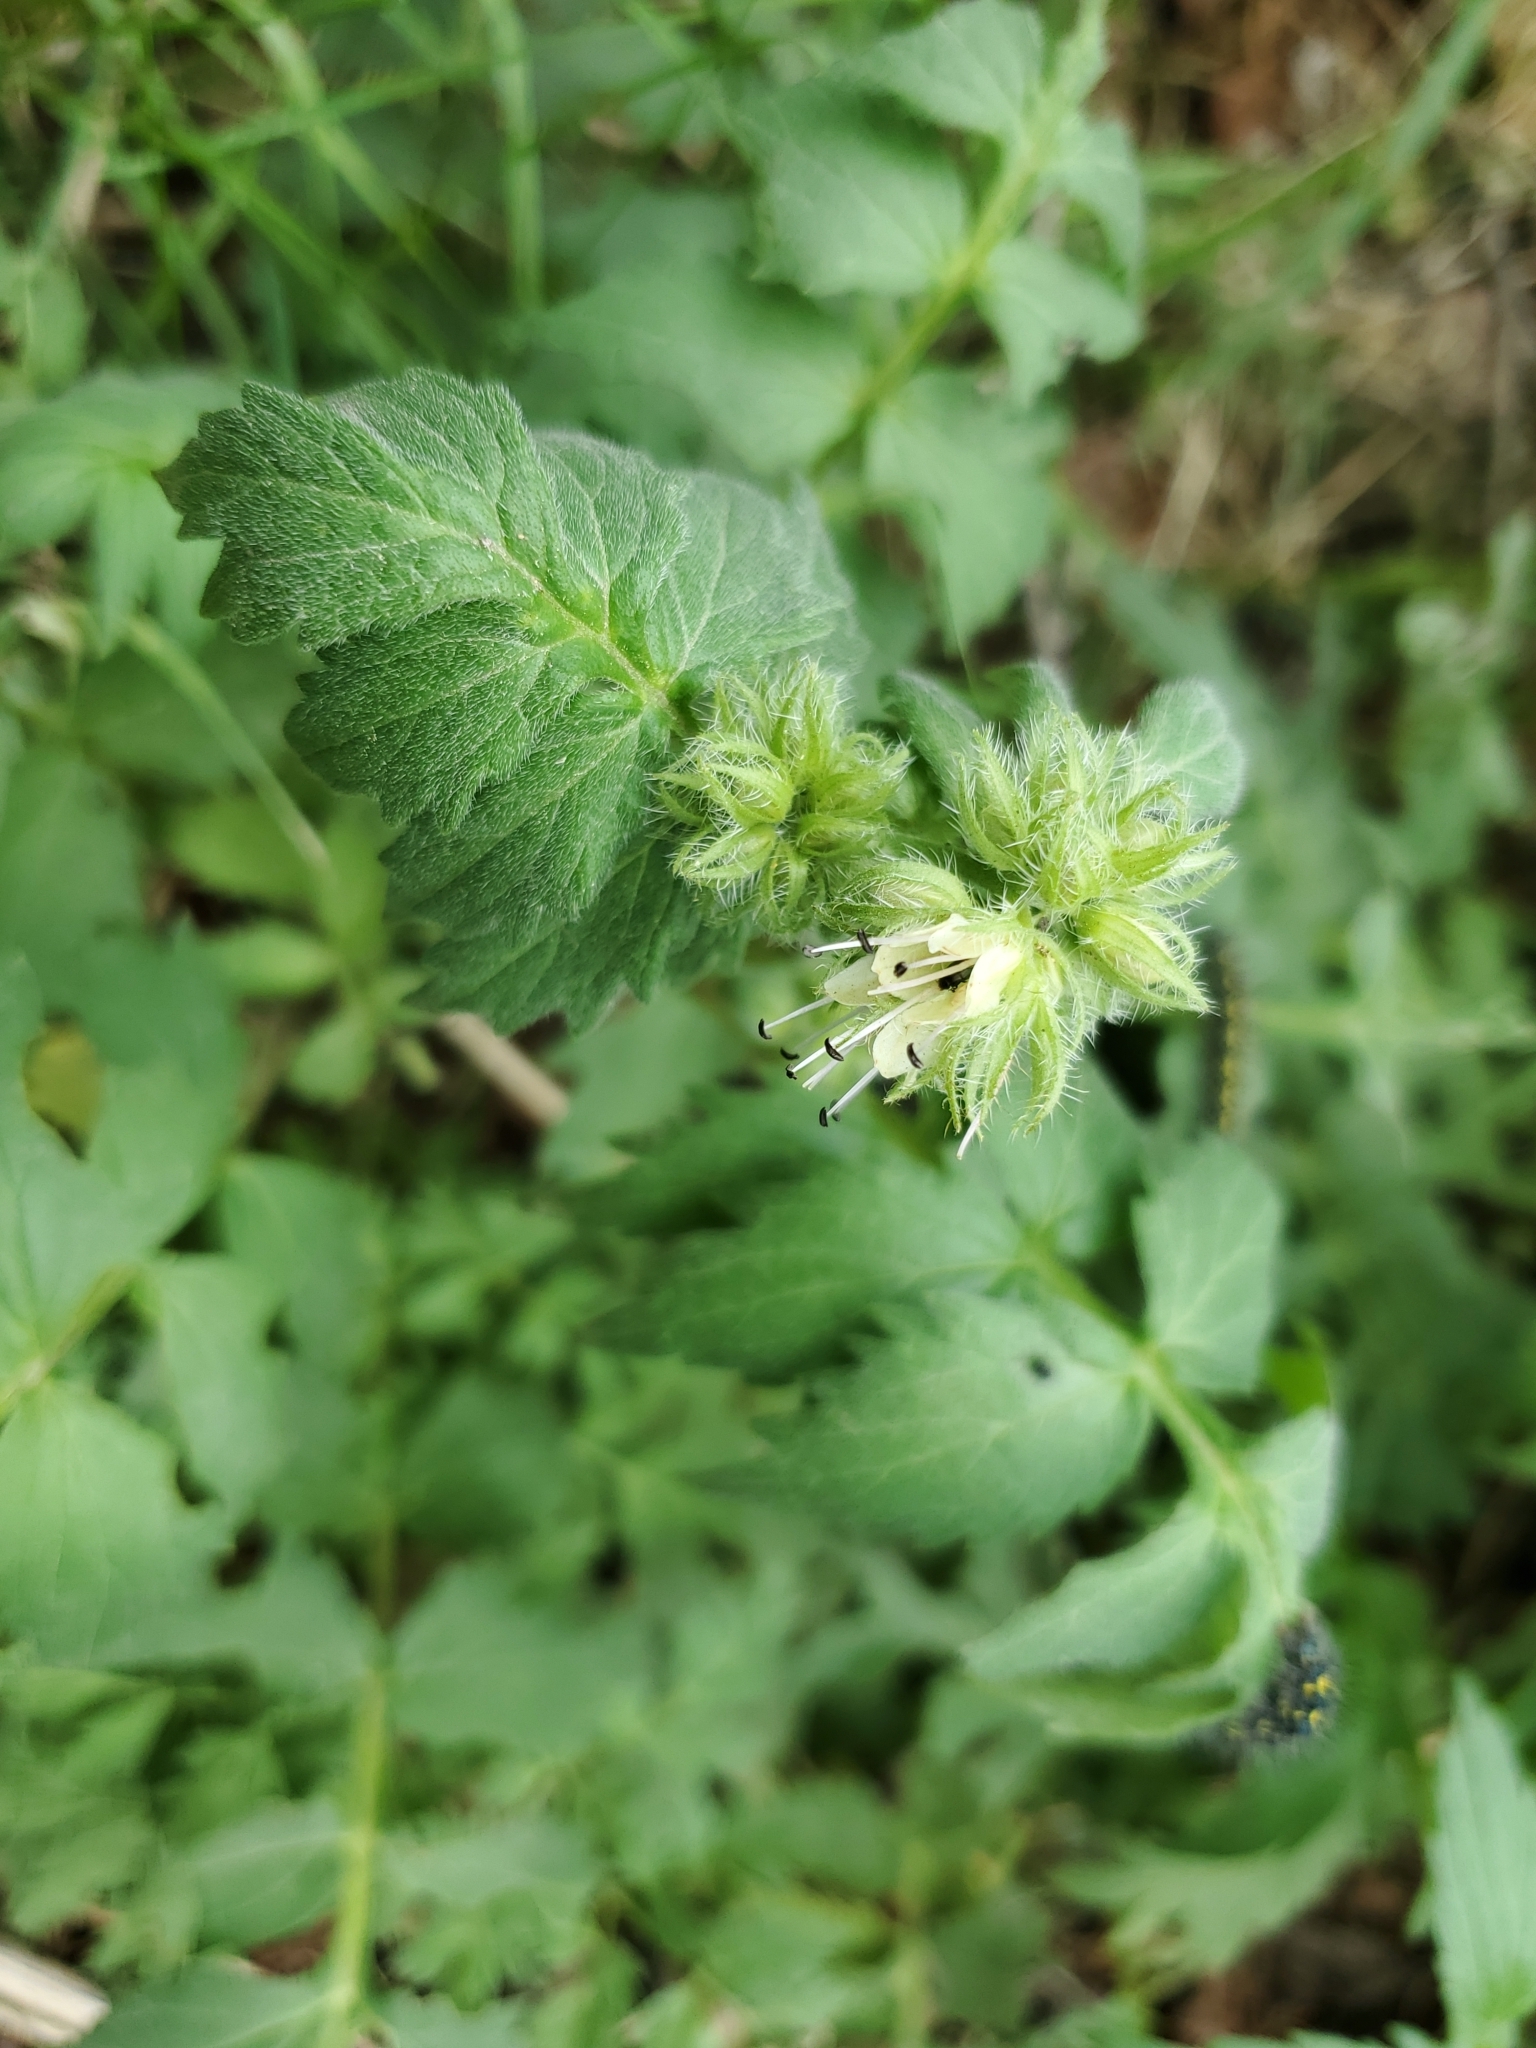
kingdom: Plantae
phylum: Tracheophyta
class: Magnoliopsida
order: Boraginales
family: Hydrophyllaceae
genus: Hydrophyllum
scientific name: Hydrophyllum fendleri
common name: Fendler's waterleaf
